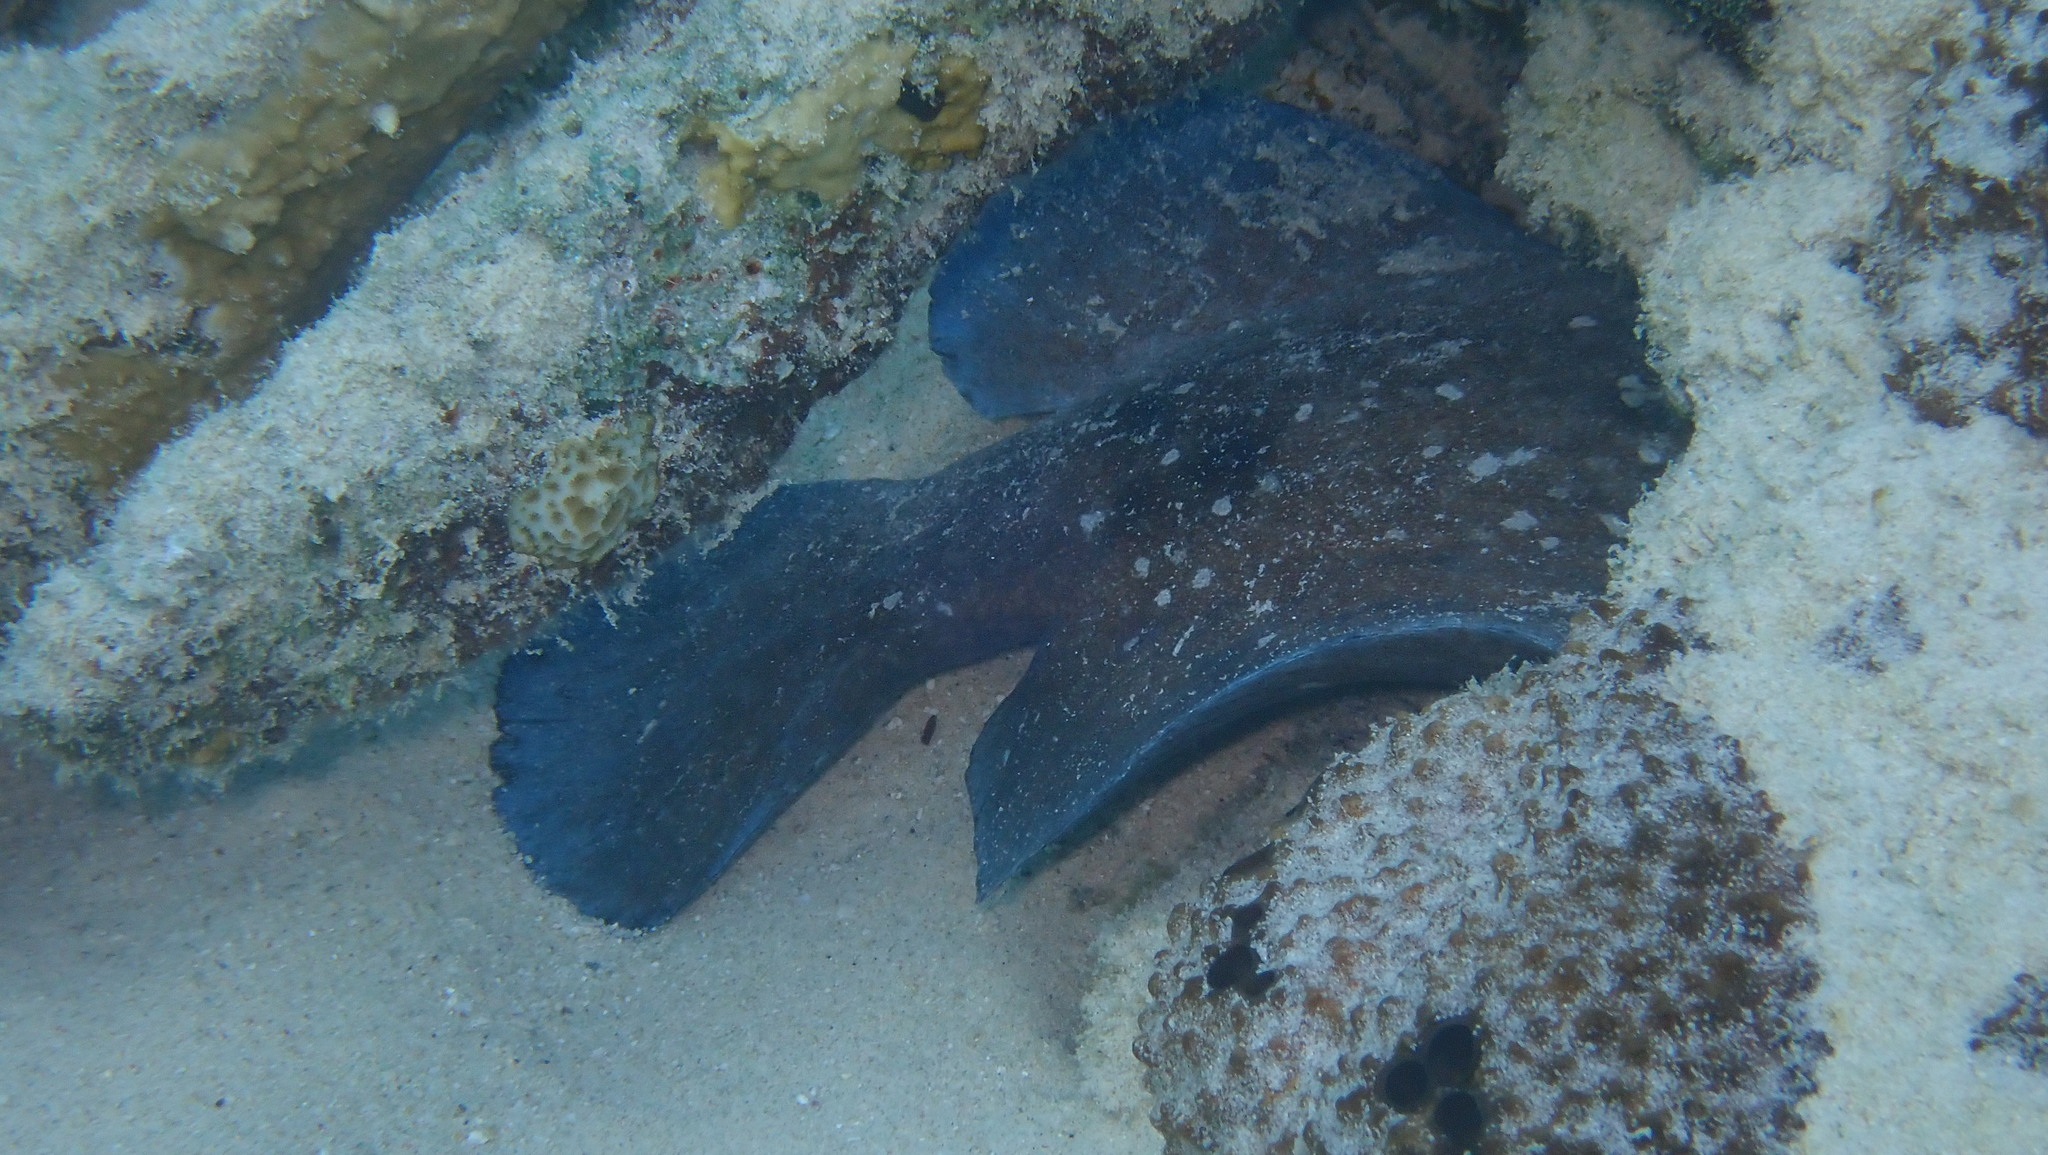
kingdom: Animalia
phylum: Chordata
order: Perciformes
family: Serranidae
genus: Rypticus
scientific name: Rypticus saponaceus
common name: Soapfish
